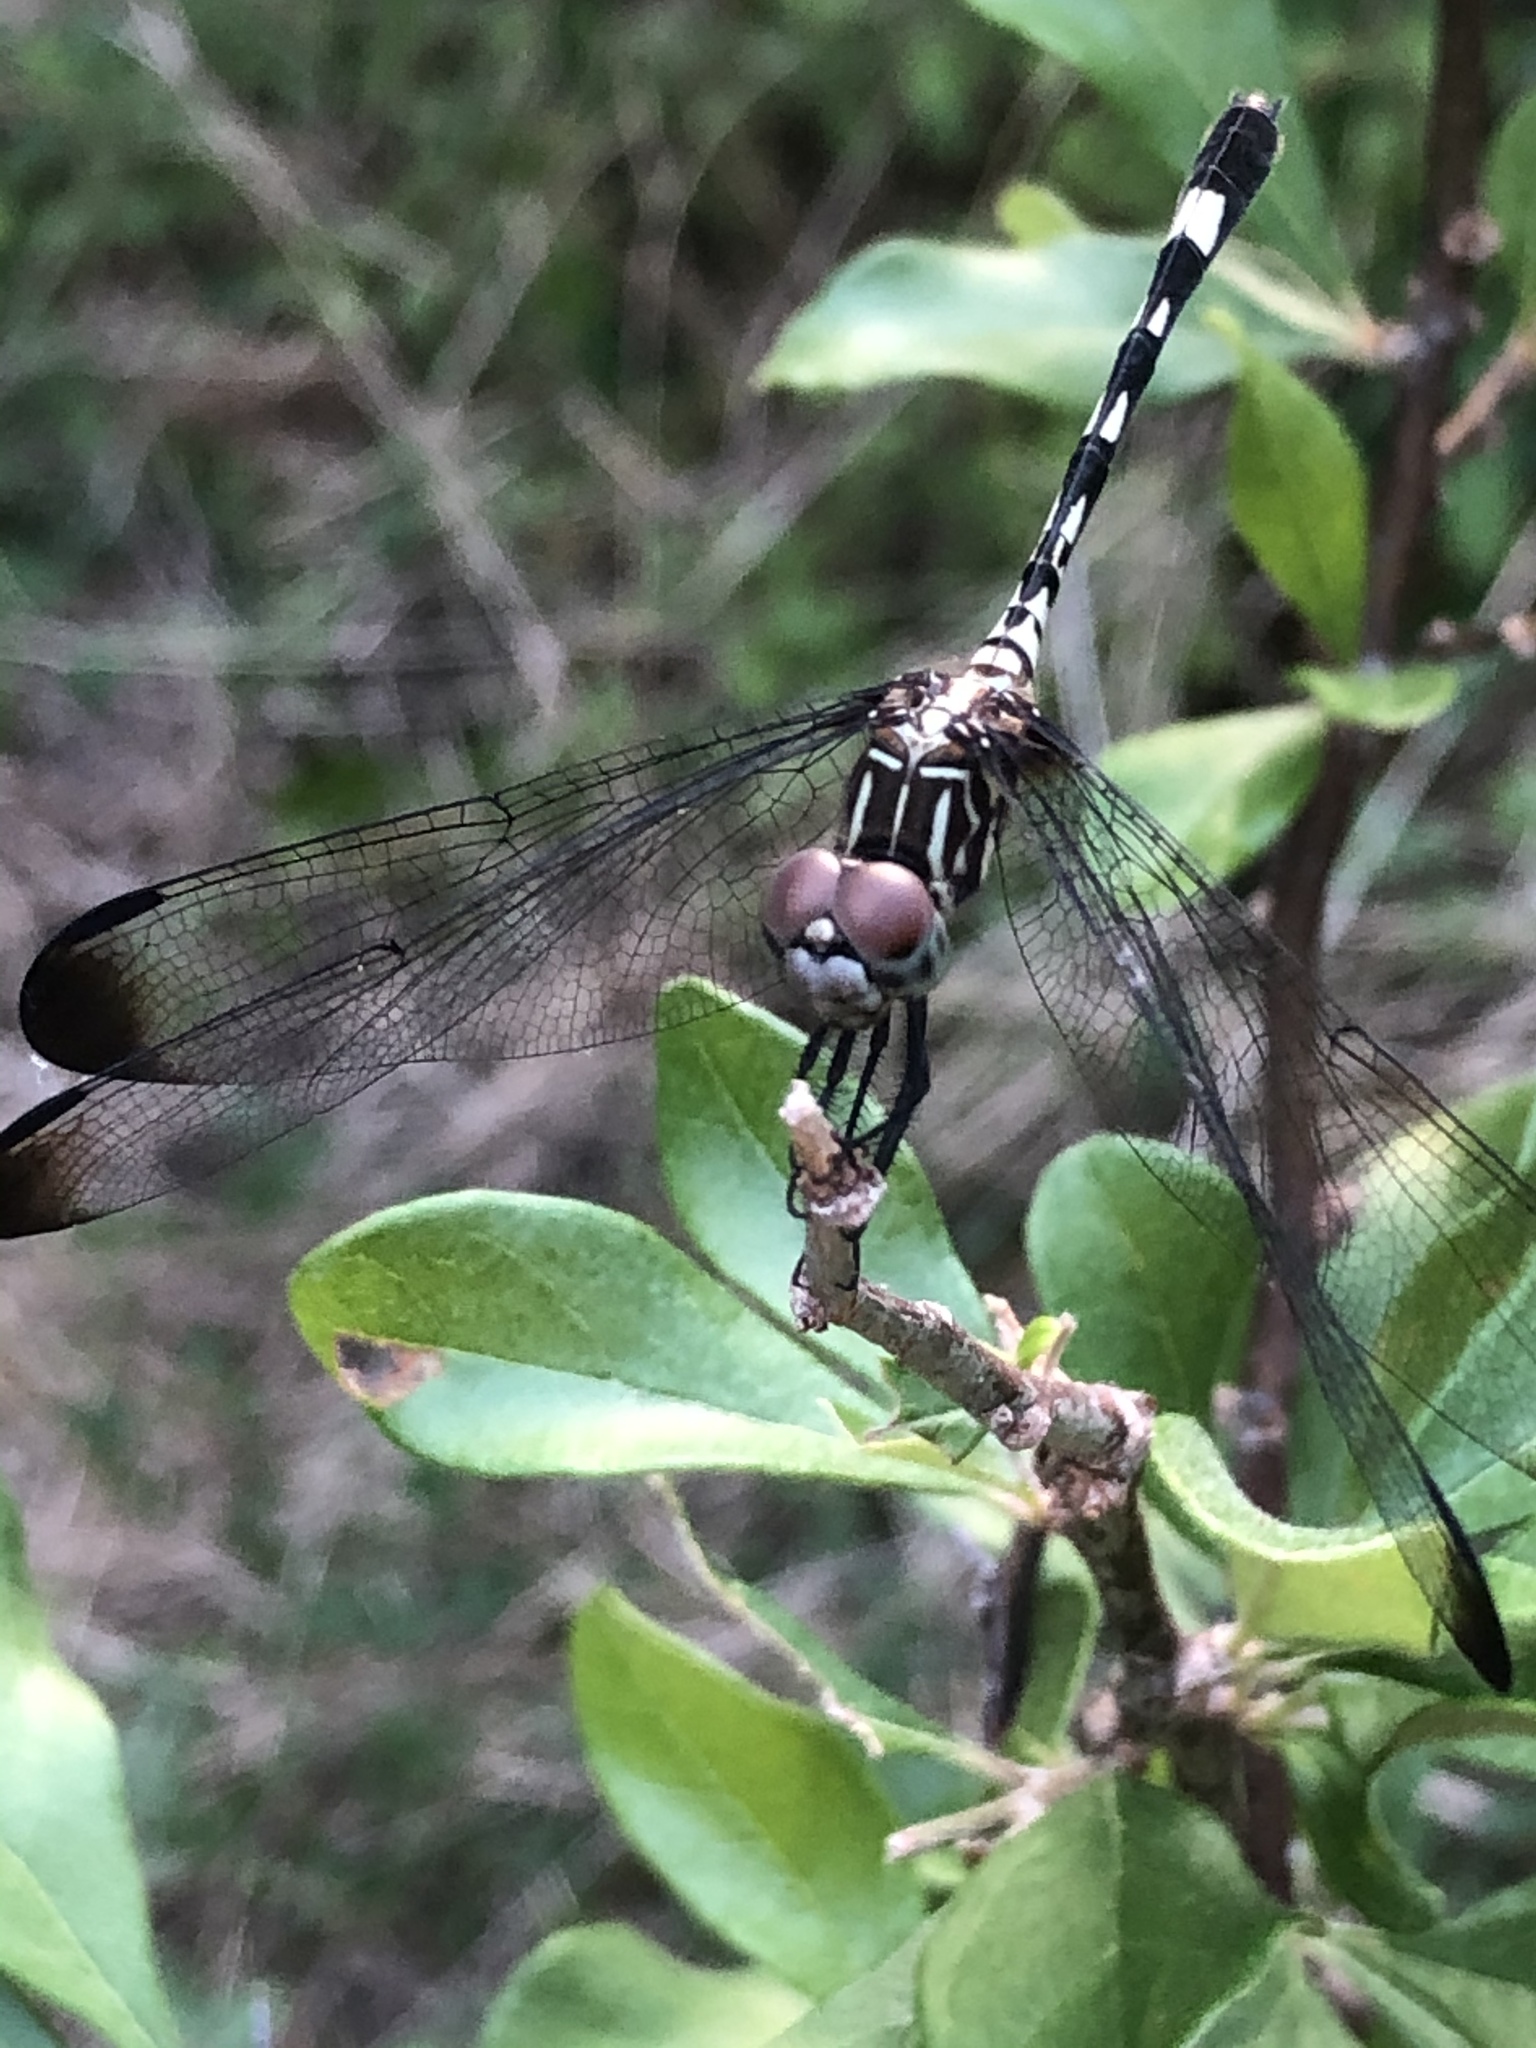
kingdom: Animalia
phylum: Arthropoda
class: Insecta
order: Odonata
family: Libellulidae
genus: Dythemis
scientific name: Dythemis velox
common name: Swift setwing
